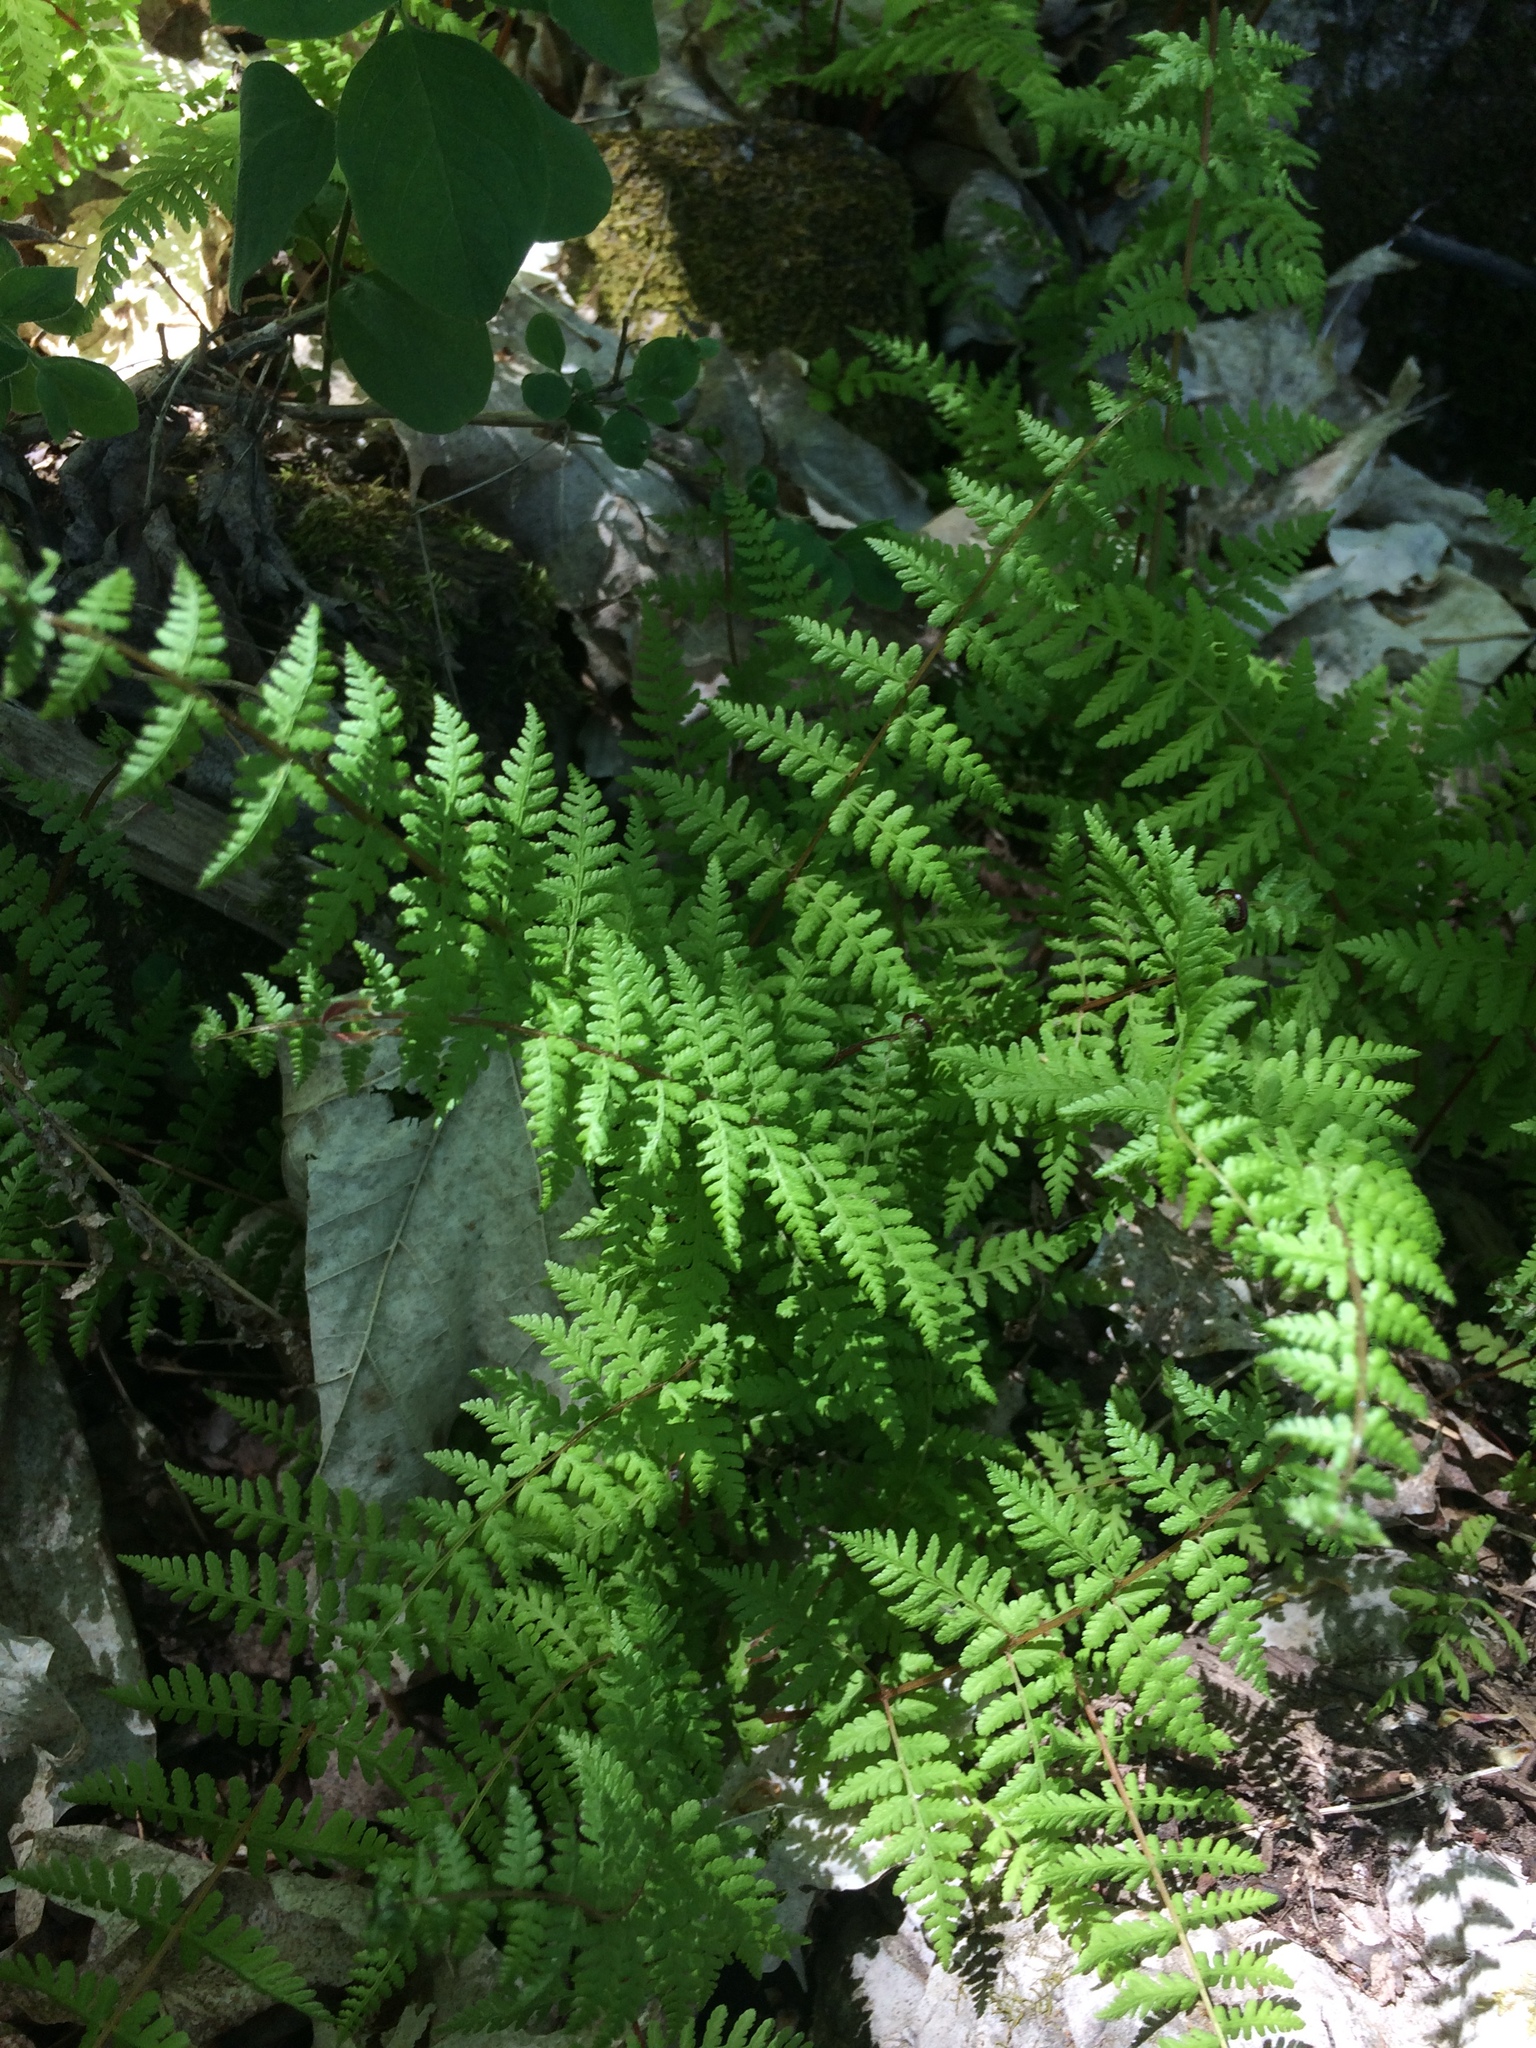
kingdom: Plantae
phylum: Tracheophyta
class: Polypodiopsida
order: Polypodiales
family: Cystopteridaceae
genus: Cystopteris
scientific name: Cystopteris bulbifera
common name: Bulblet bladder fern
